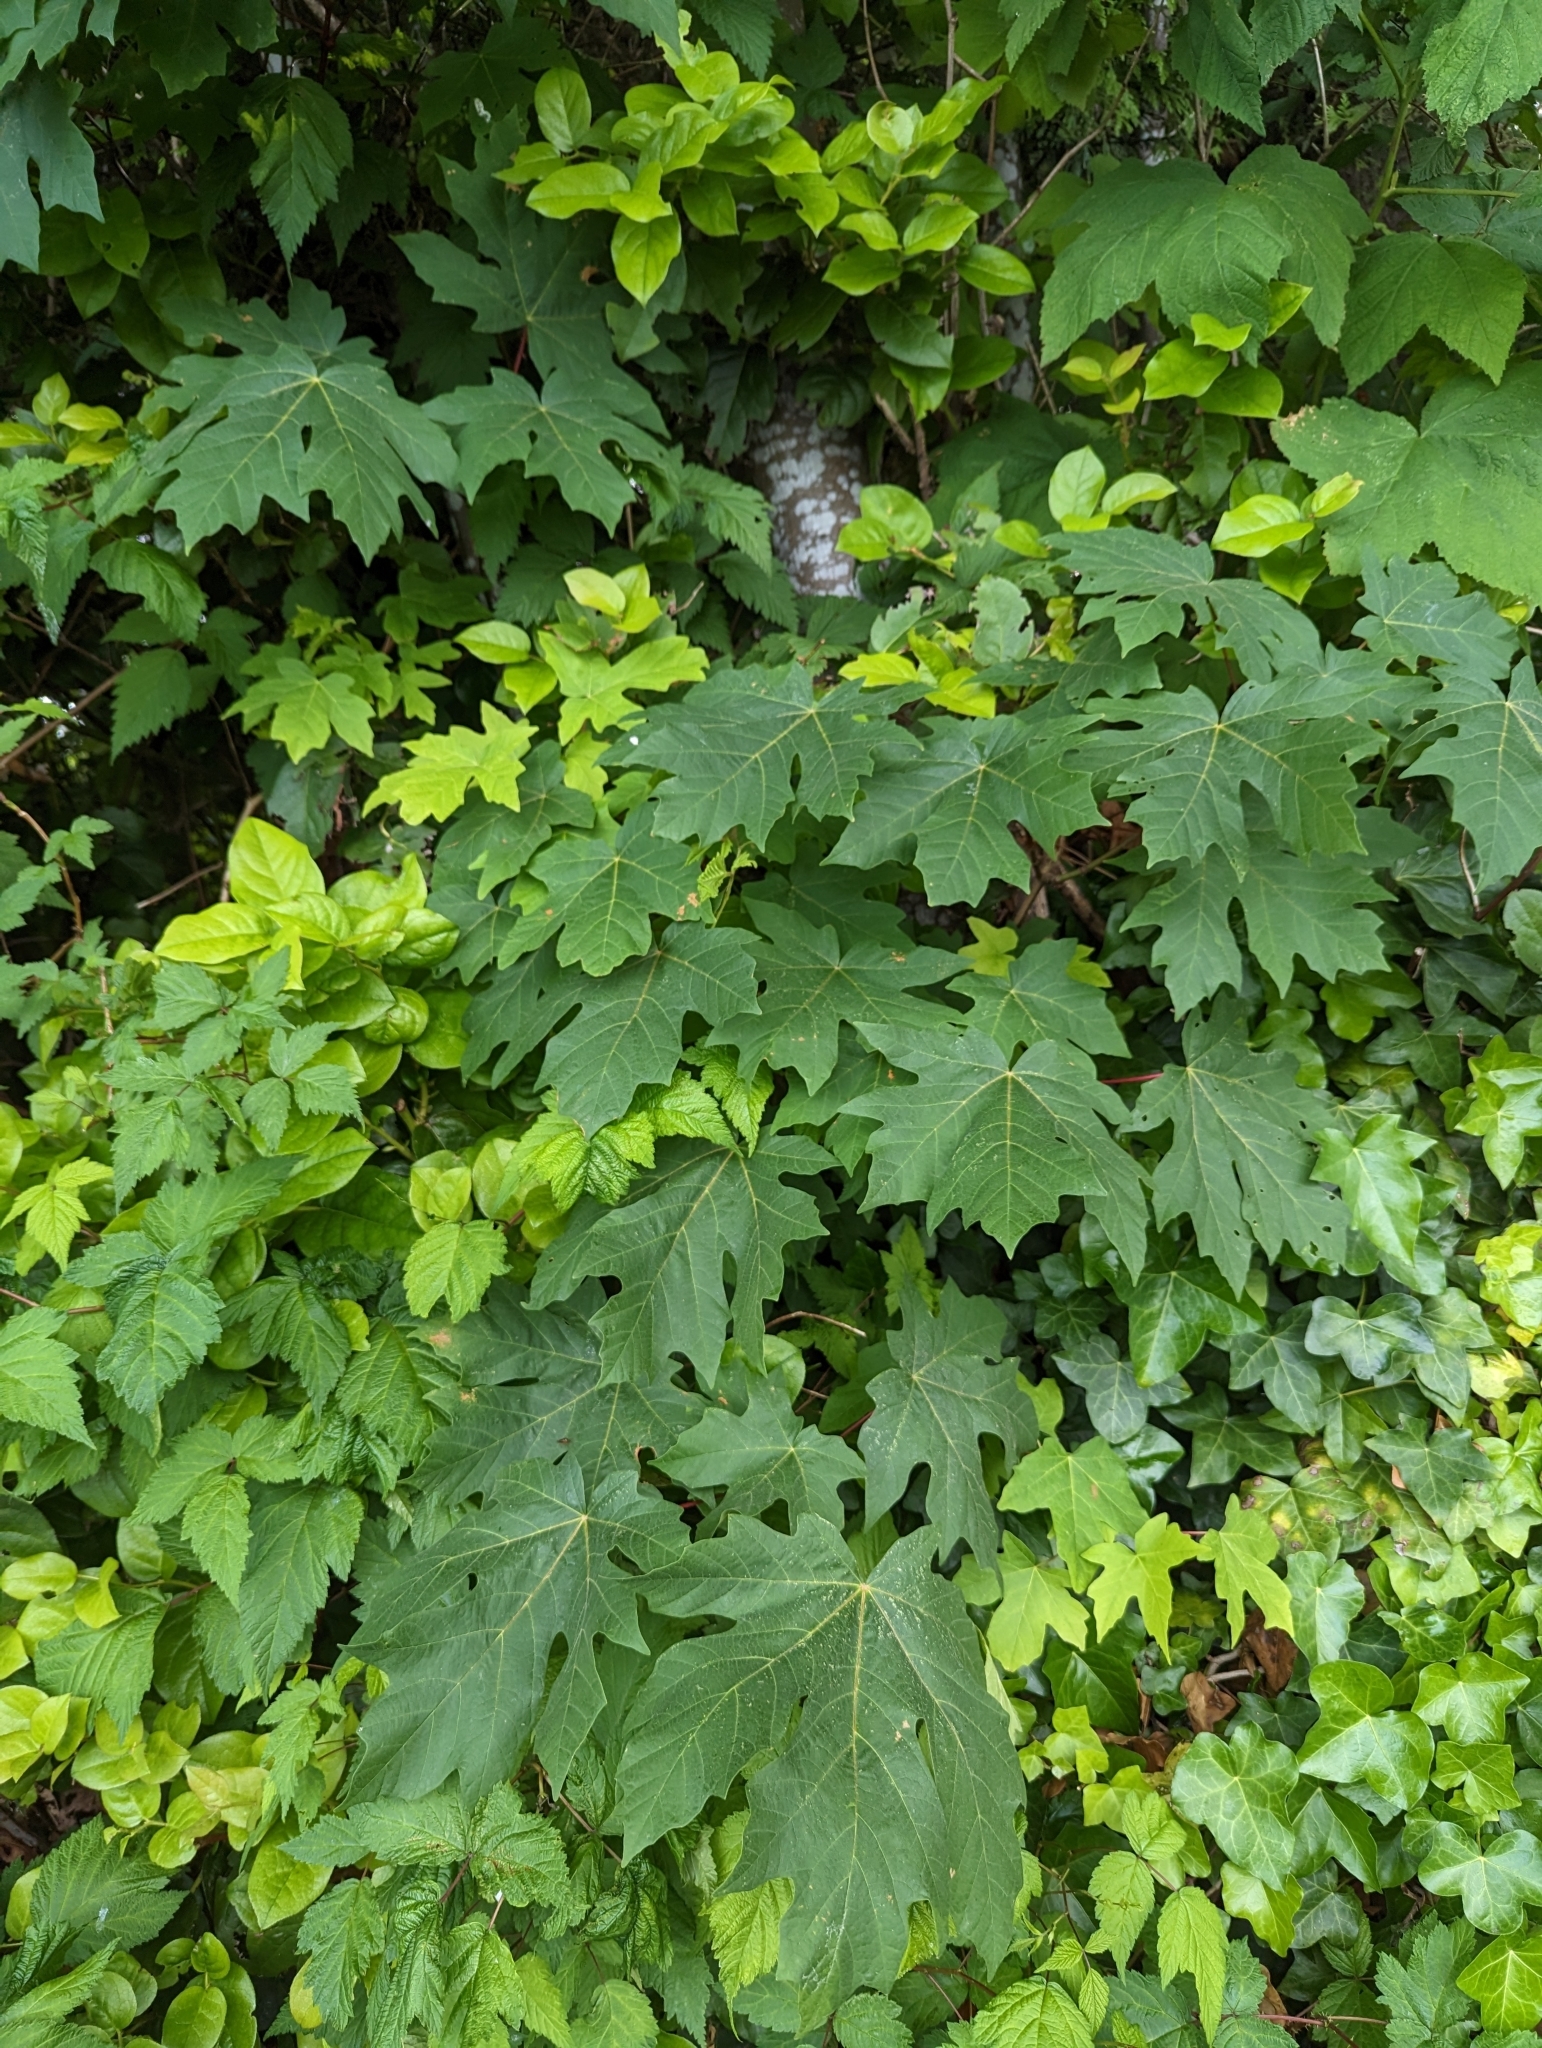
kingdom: Plantae
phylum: Tracheophyta
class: Magnoliopsida
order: Sapindales
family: Sapindaceae
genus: Acer
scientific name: Acer macrophyllum
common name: Oregon maple
